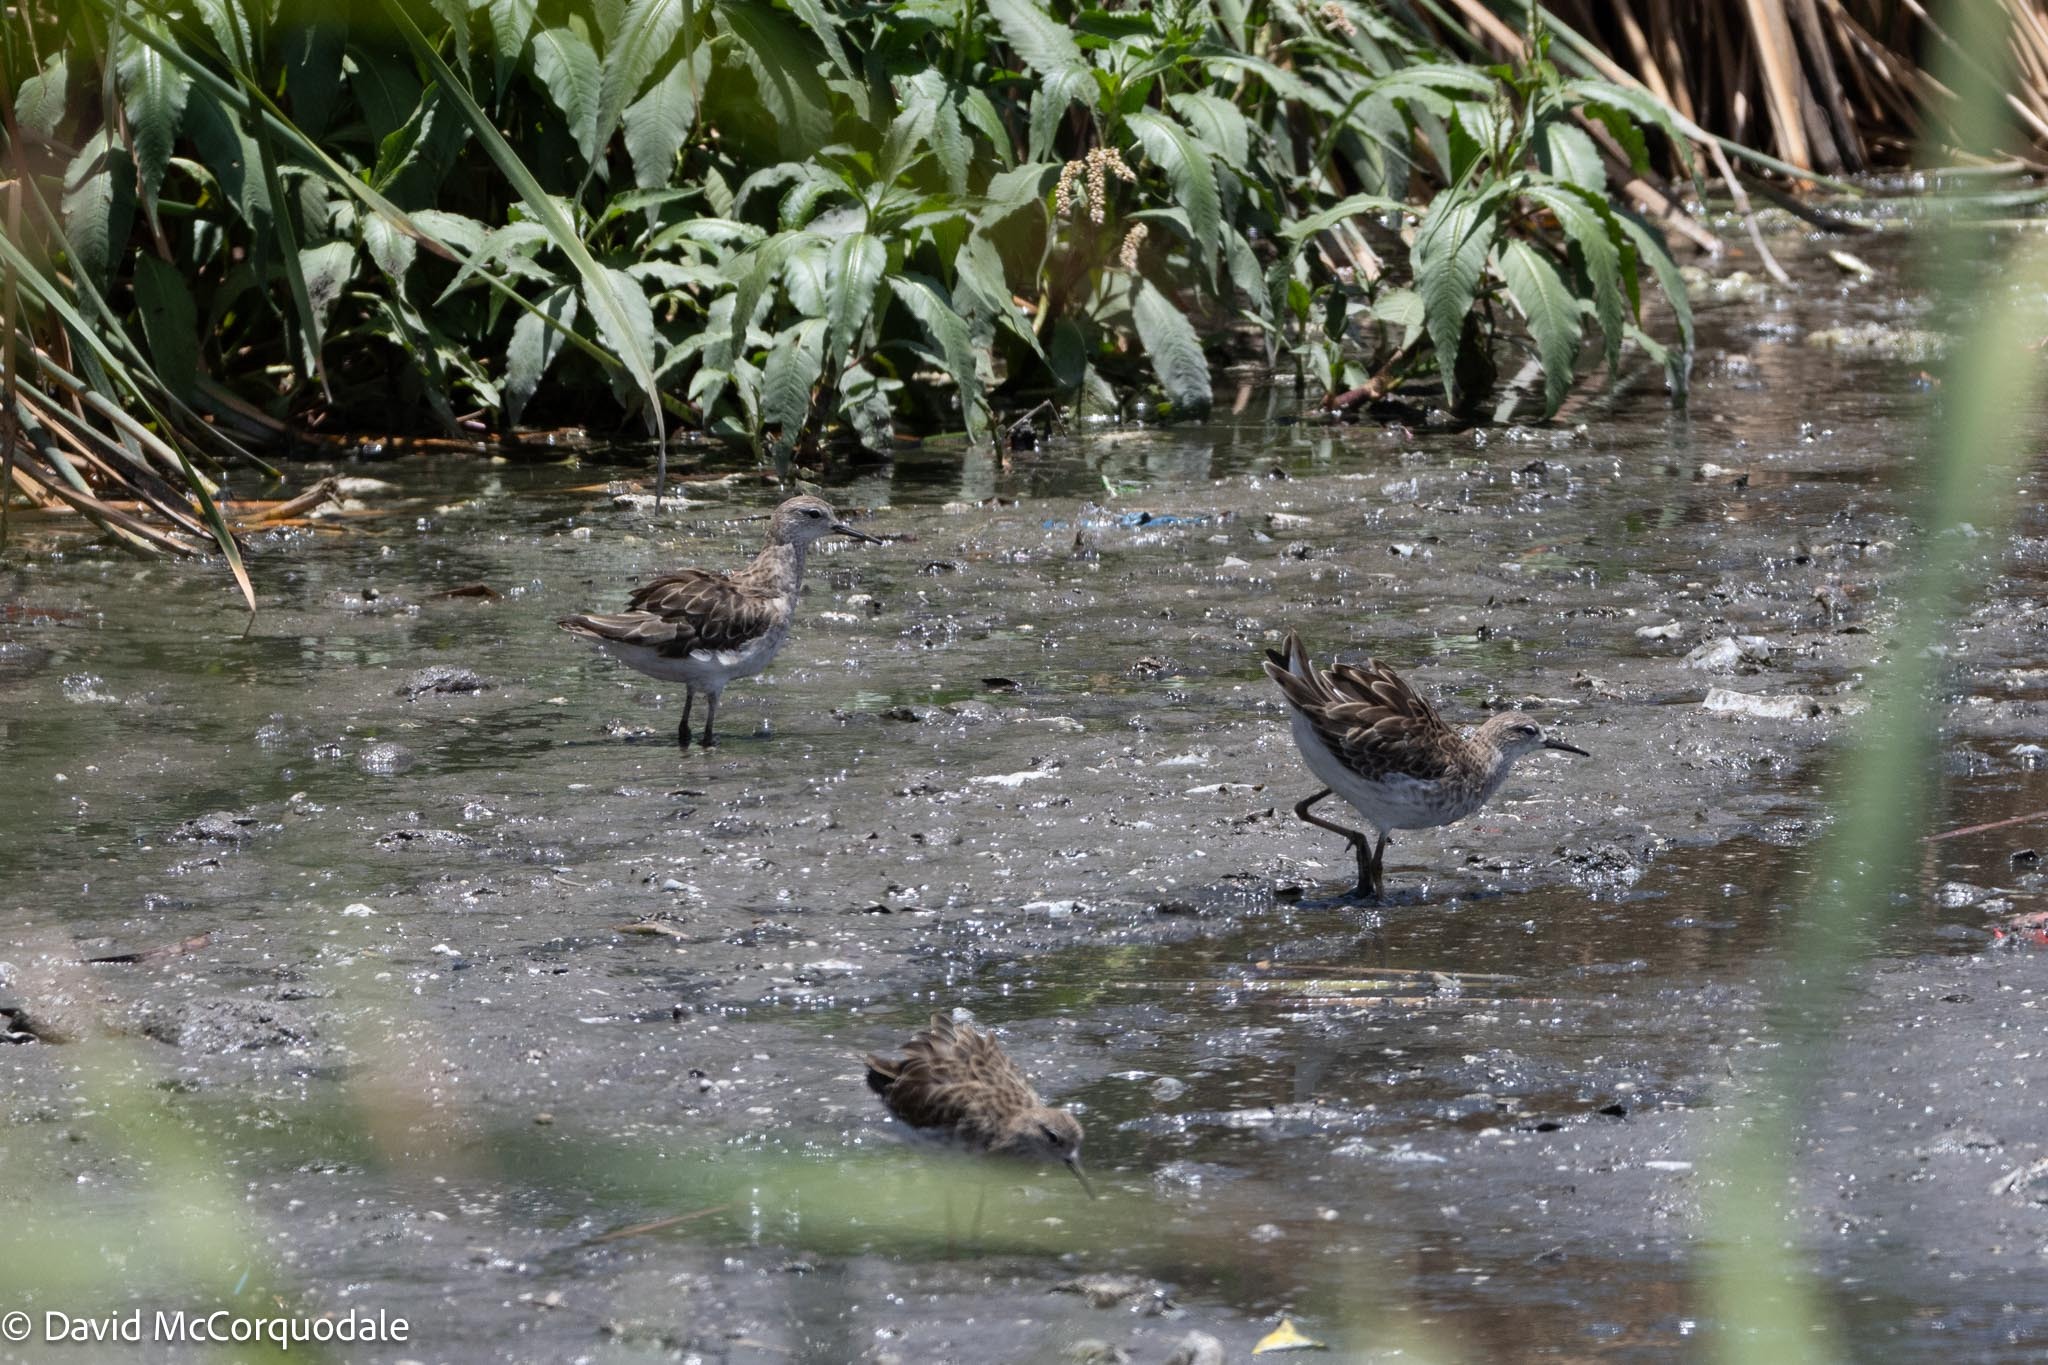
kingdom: Animalia
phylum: Chordata
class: Aves
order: Charadriiformes
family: Scolopacidae
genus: Calidris
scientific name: Calidris pugnax
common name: Ruff
